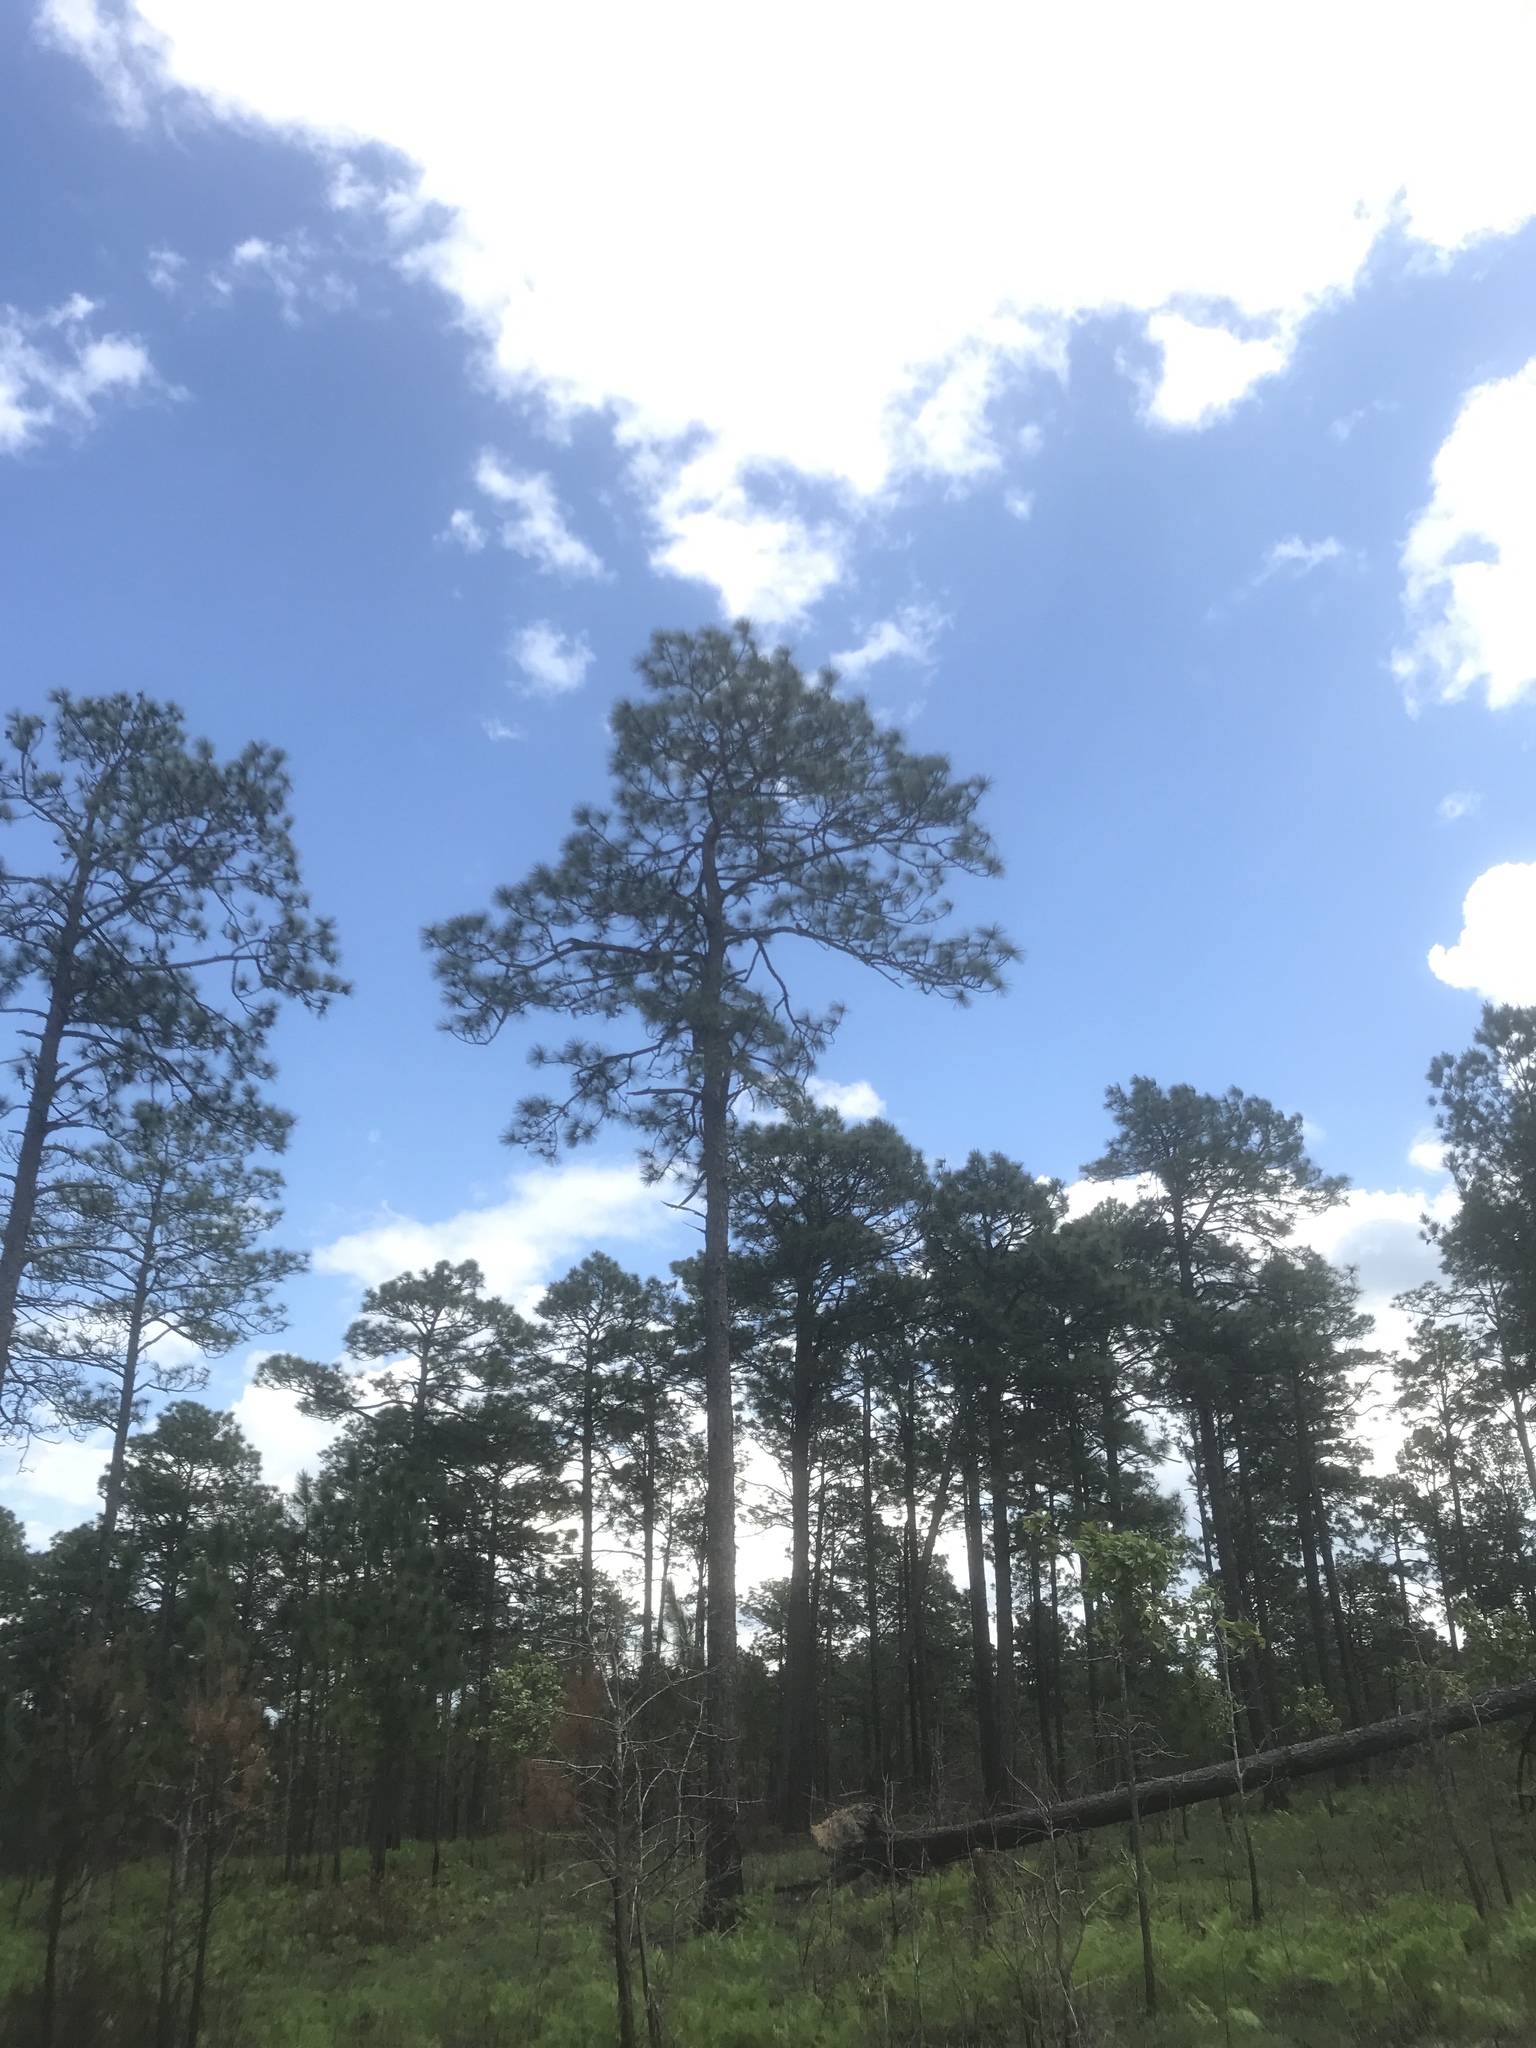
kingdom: Plantae
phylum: Tracheophyta
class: Pinopsida
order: Pinales
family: Pinaceae
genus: Pinus
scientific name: Pinus palustris
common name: Longleaf pine
